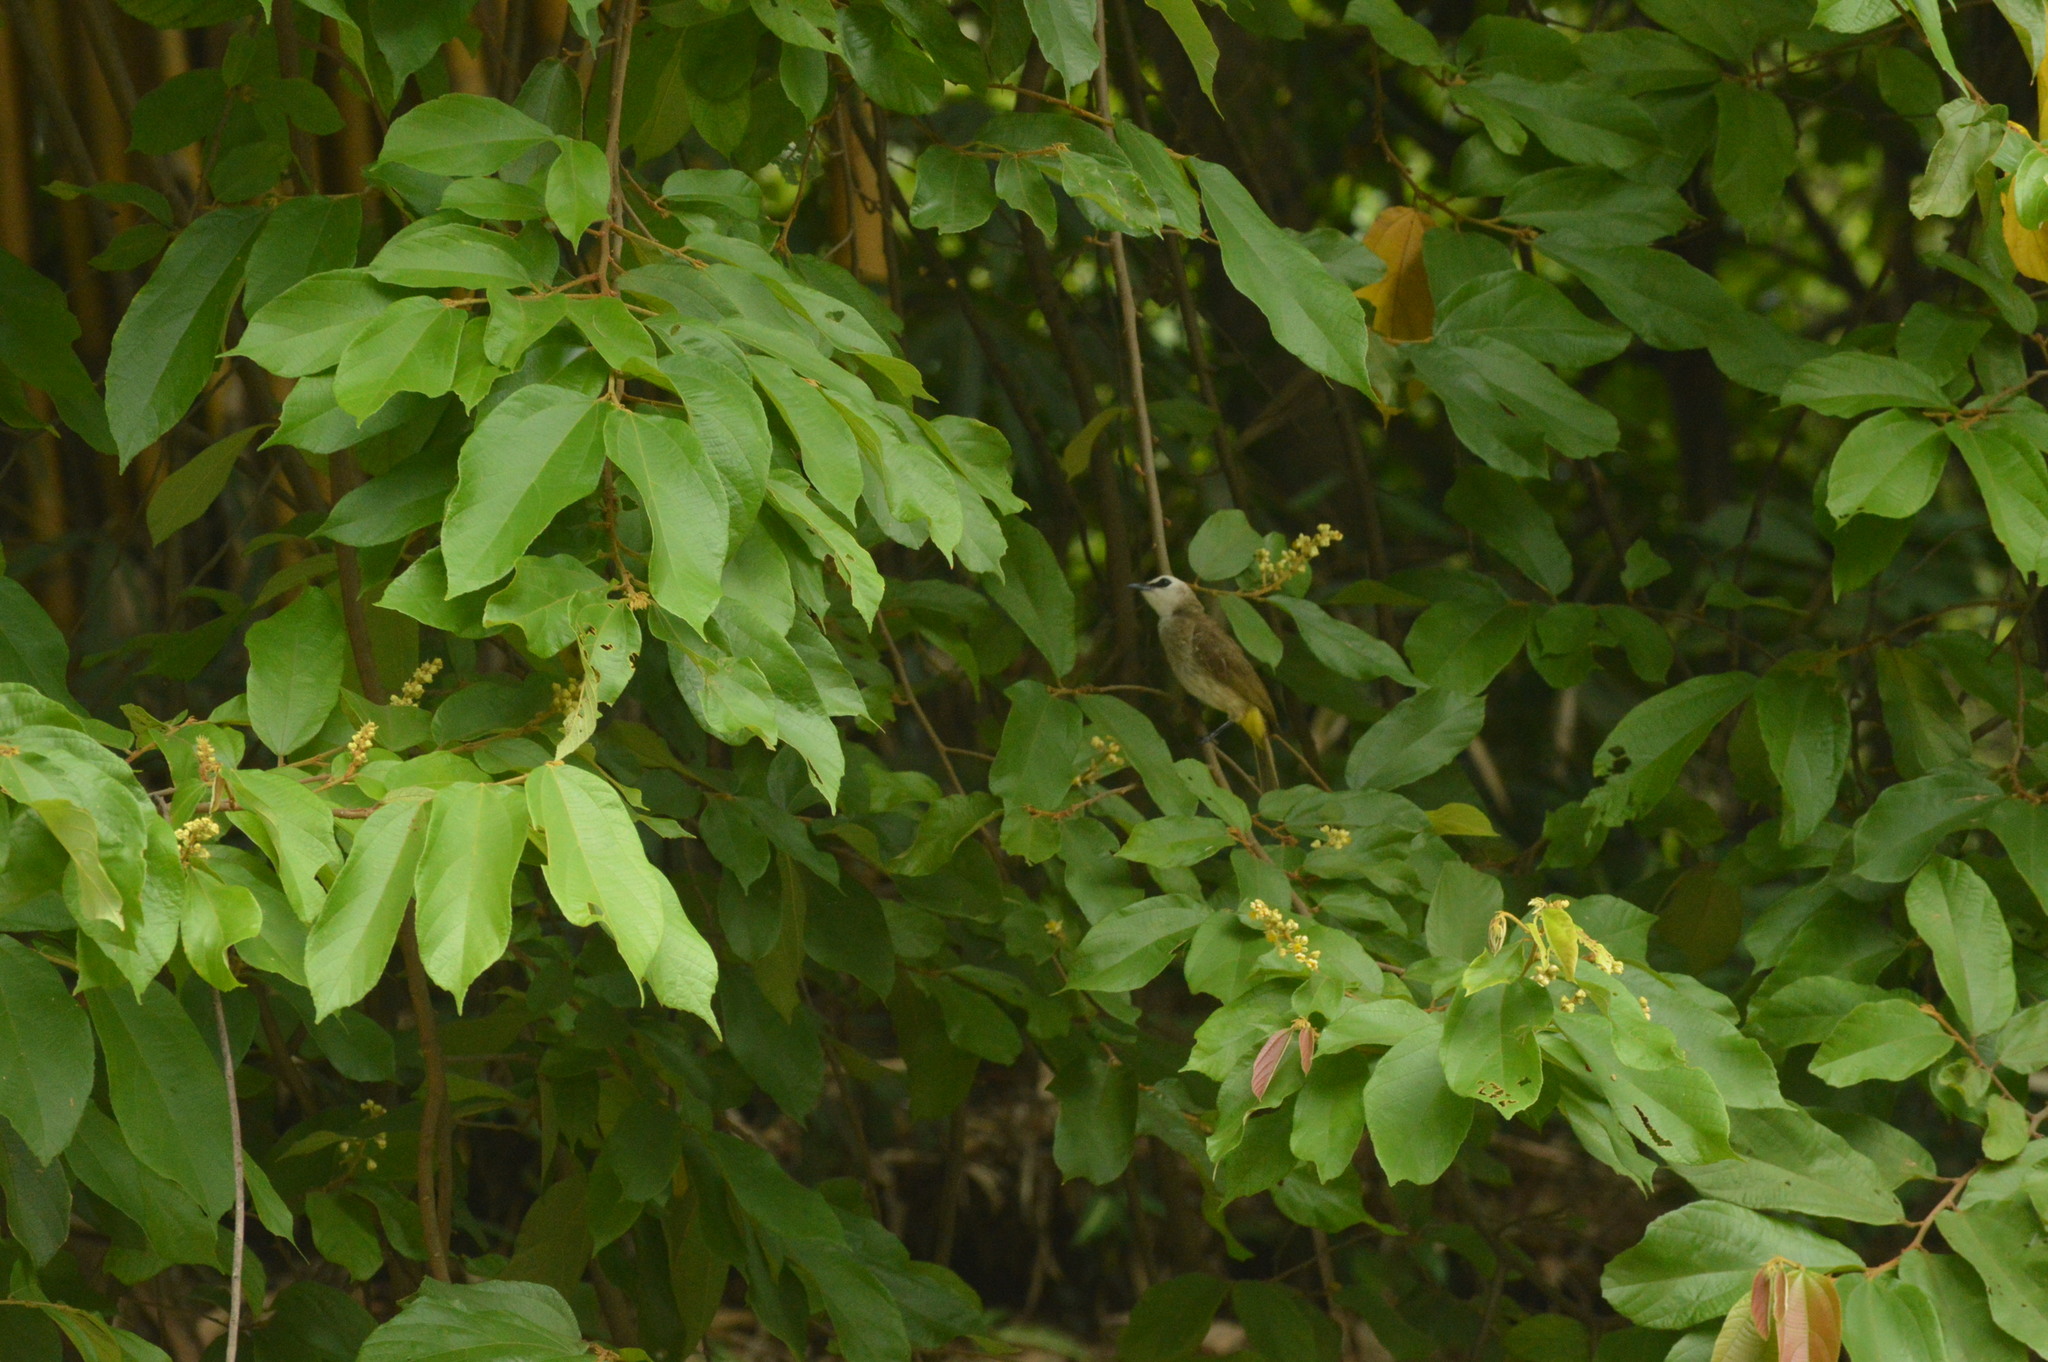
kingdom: Animalia
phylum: Chordata
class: Aves
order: Passeriformes
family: Pycnonotidae
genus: Pycnonotus
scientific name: Pycnonotus goiavier
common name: Yellow-vented bulbul
